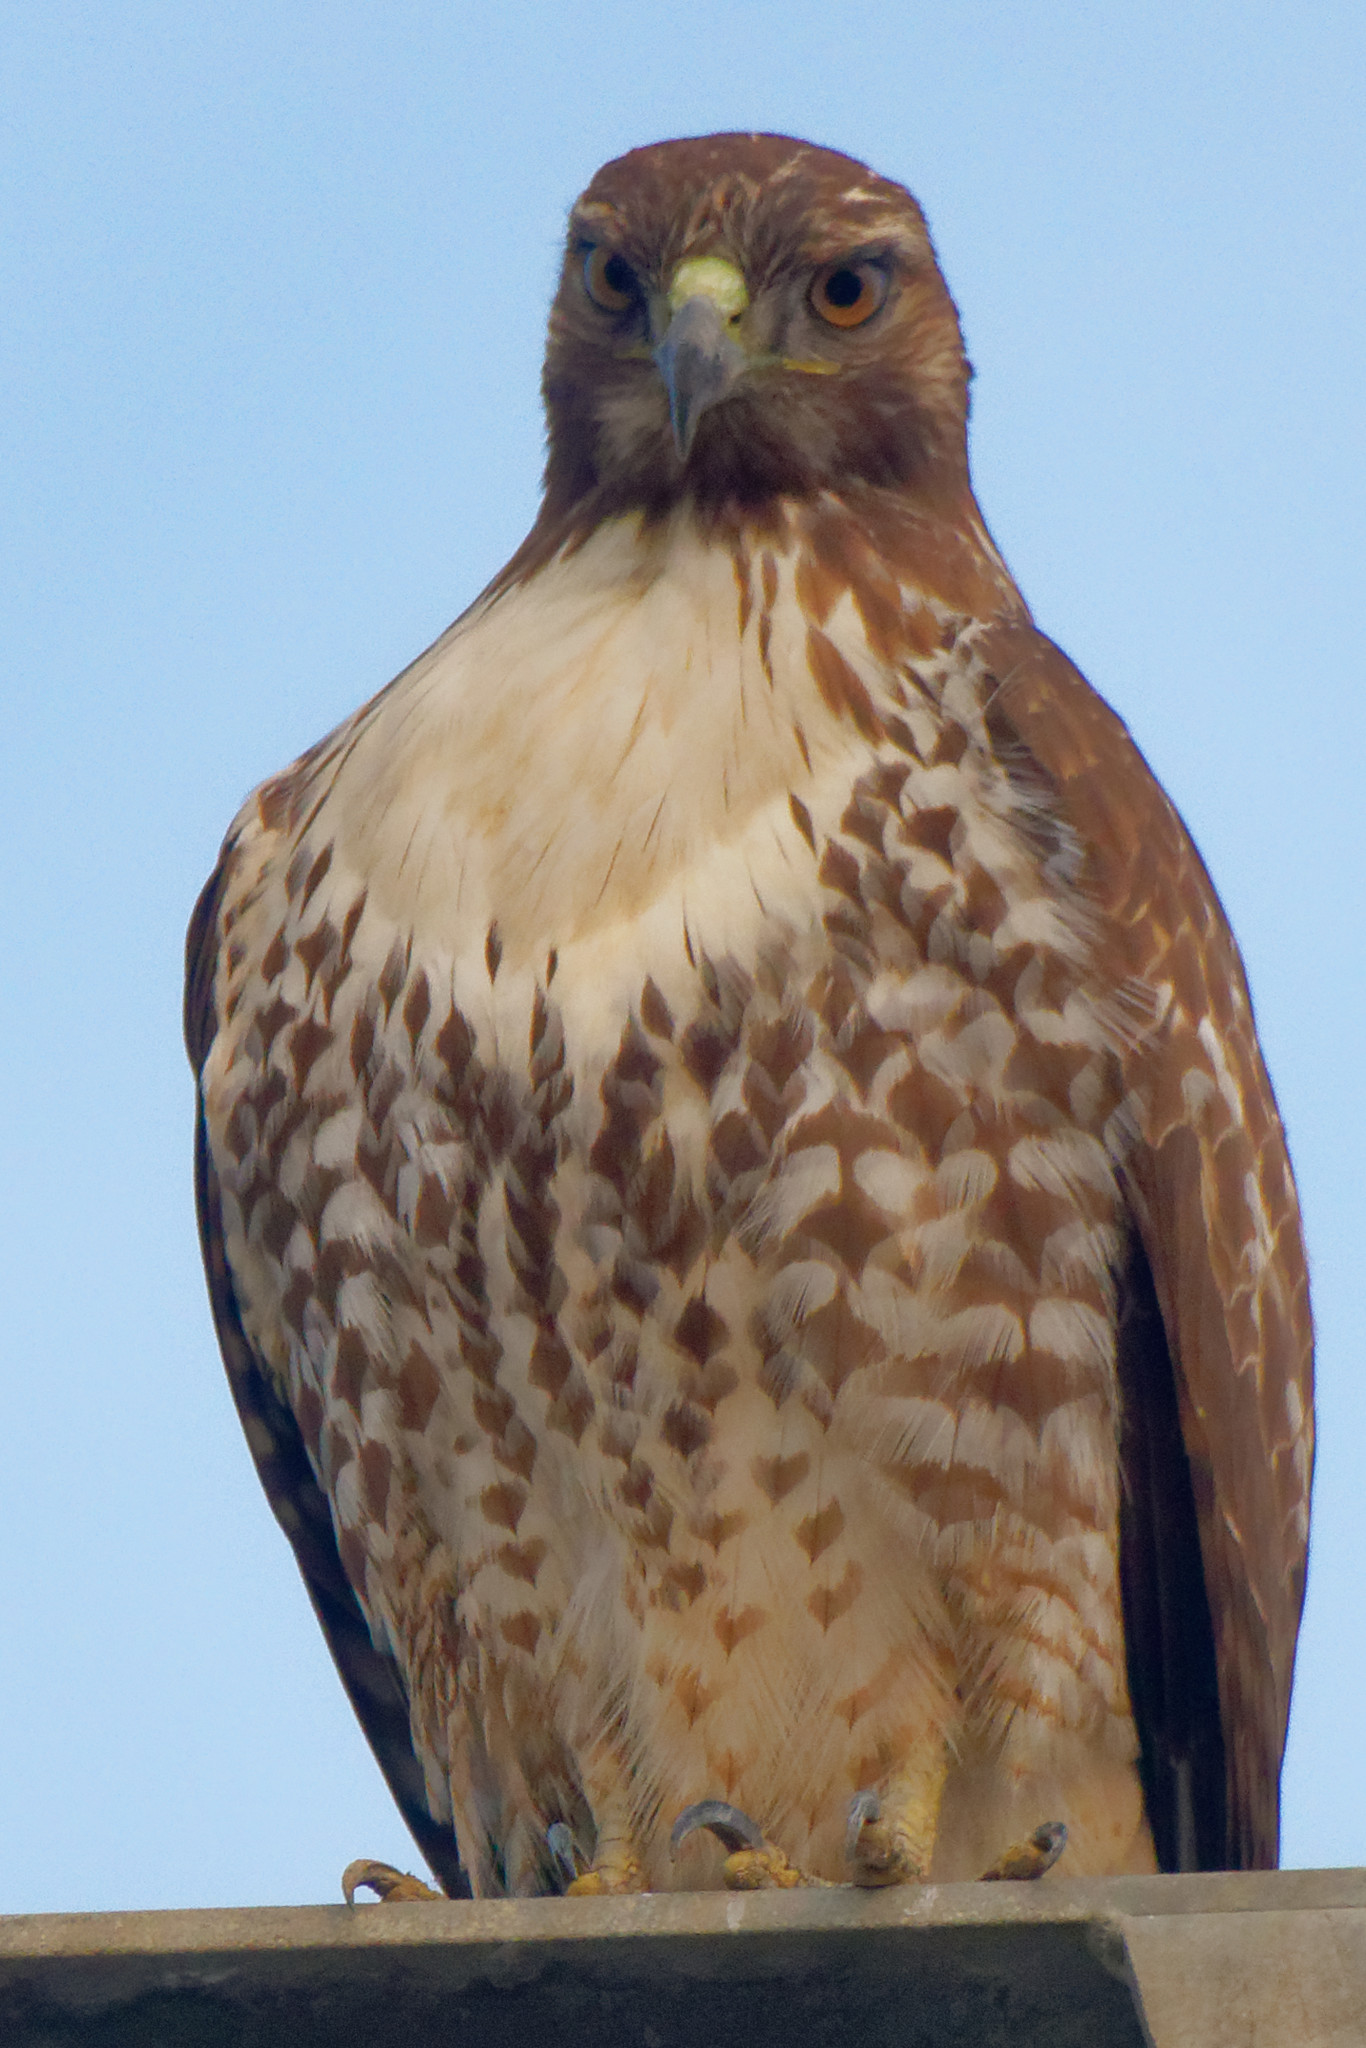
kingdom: Animalia
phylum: Chordata
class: Aves
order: Accipitriformes
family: Accipitridae
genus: Buteo
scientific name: Buteo jamaicensis
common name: Red-tailed hawk
